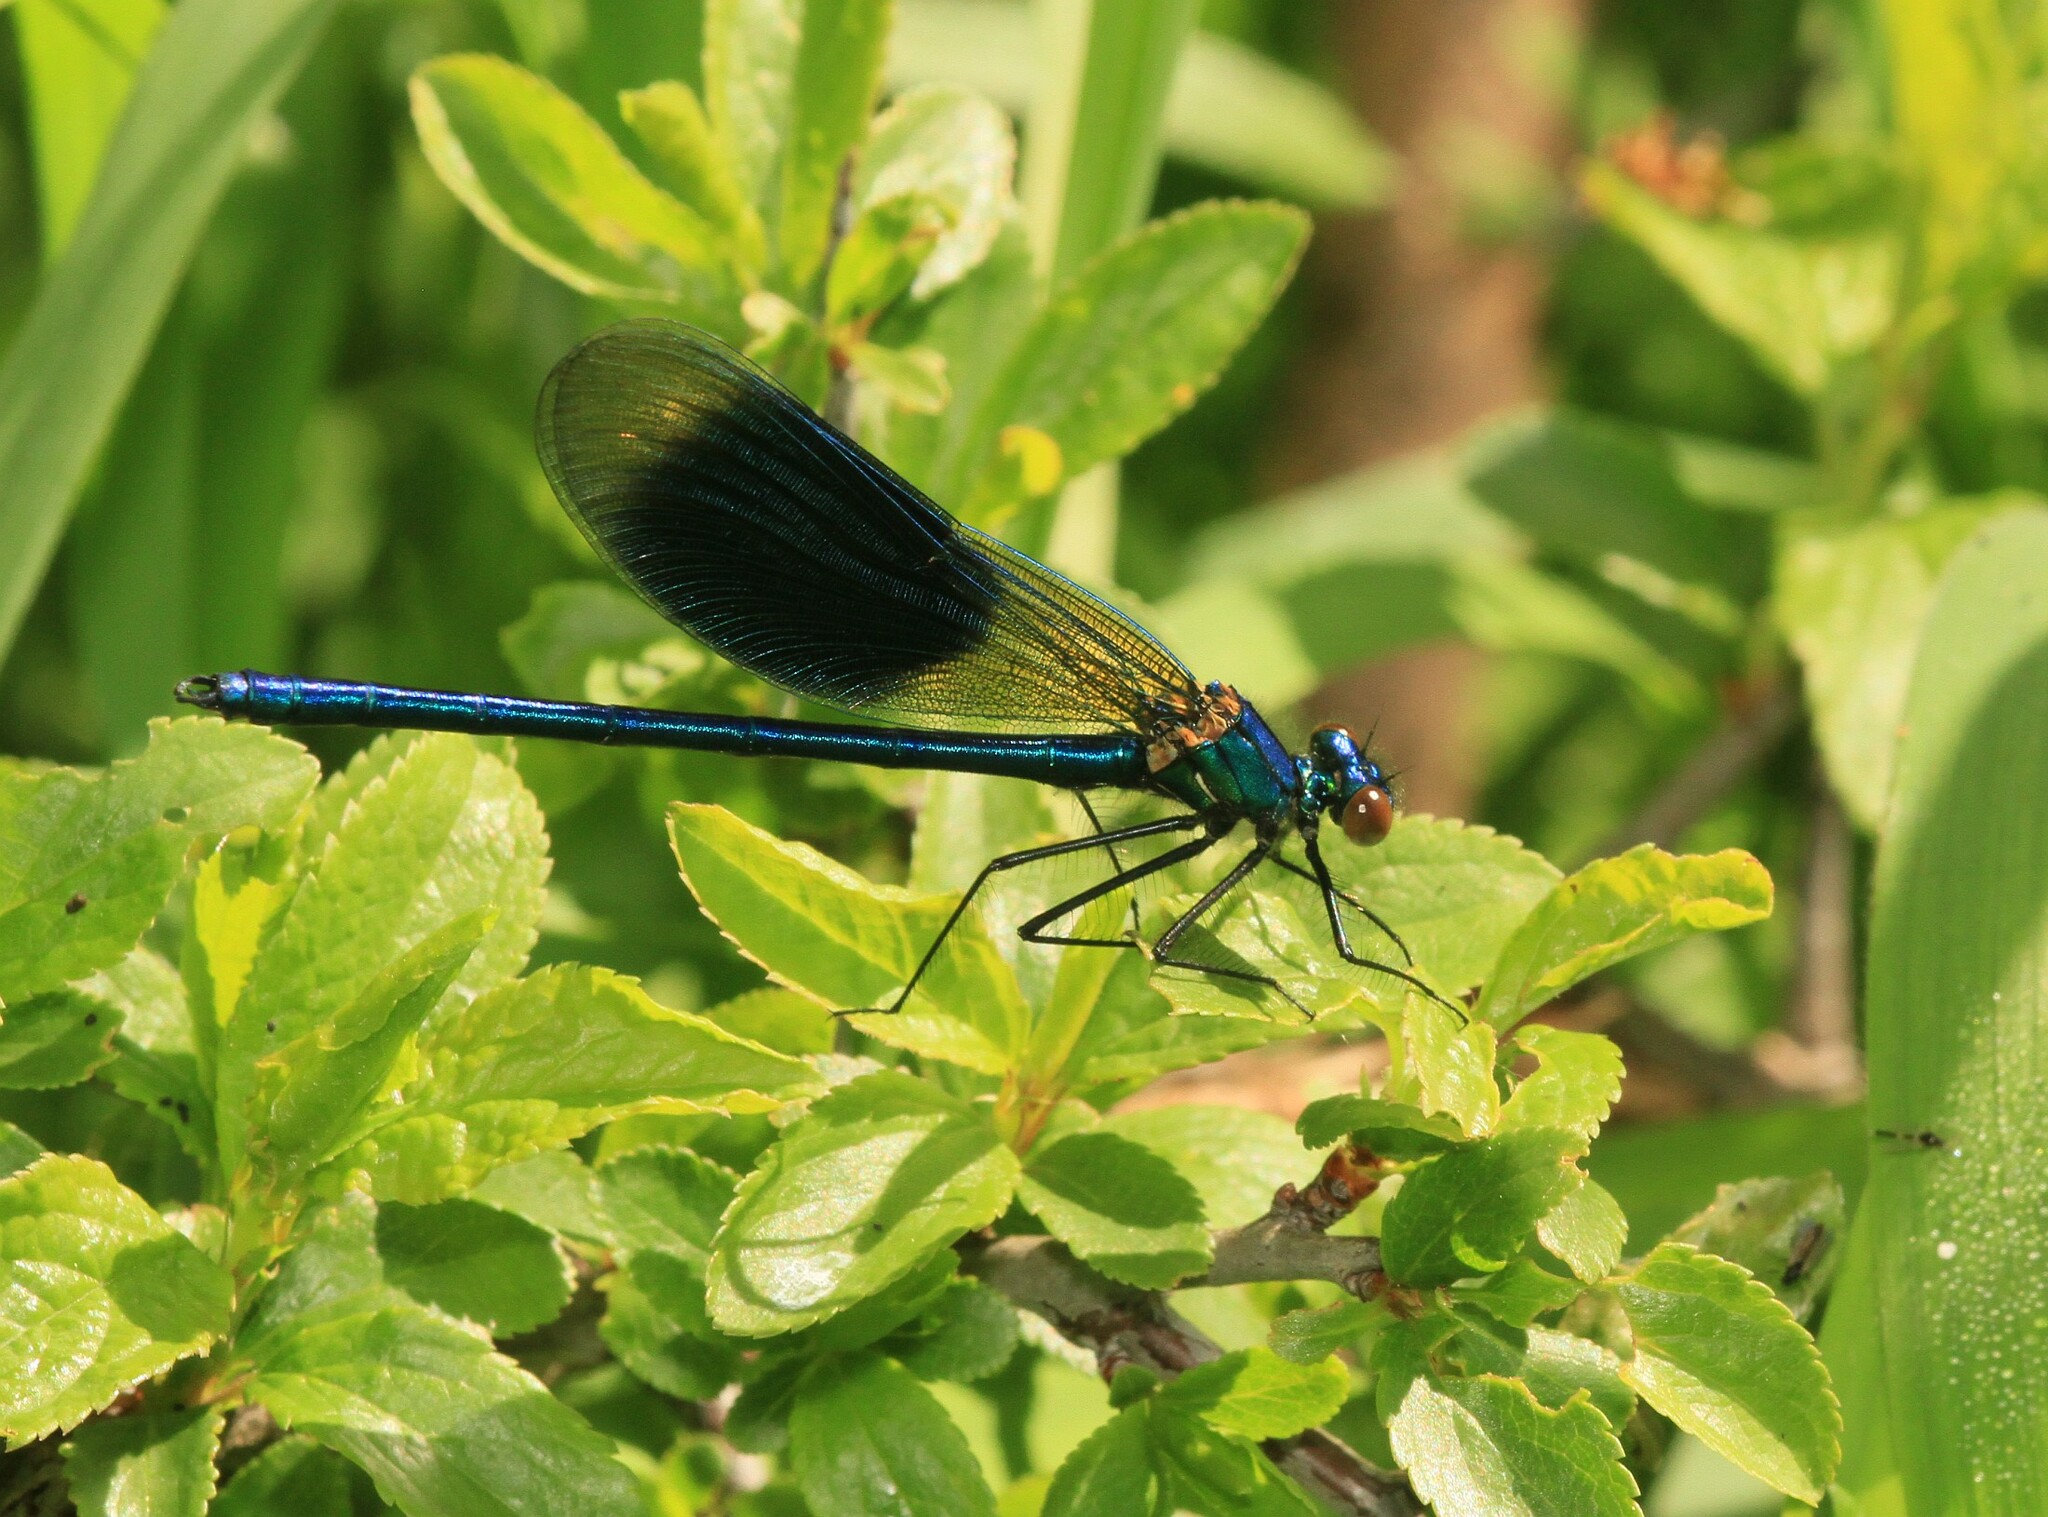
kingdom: Animalia
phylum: Arthropoda
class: Insecta
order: Odonata
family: Calopterygidae
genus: Calopteryx
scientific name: Calopteryx splendens
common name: Banded demoiselle
